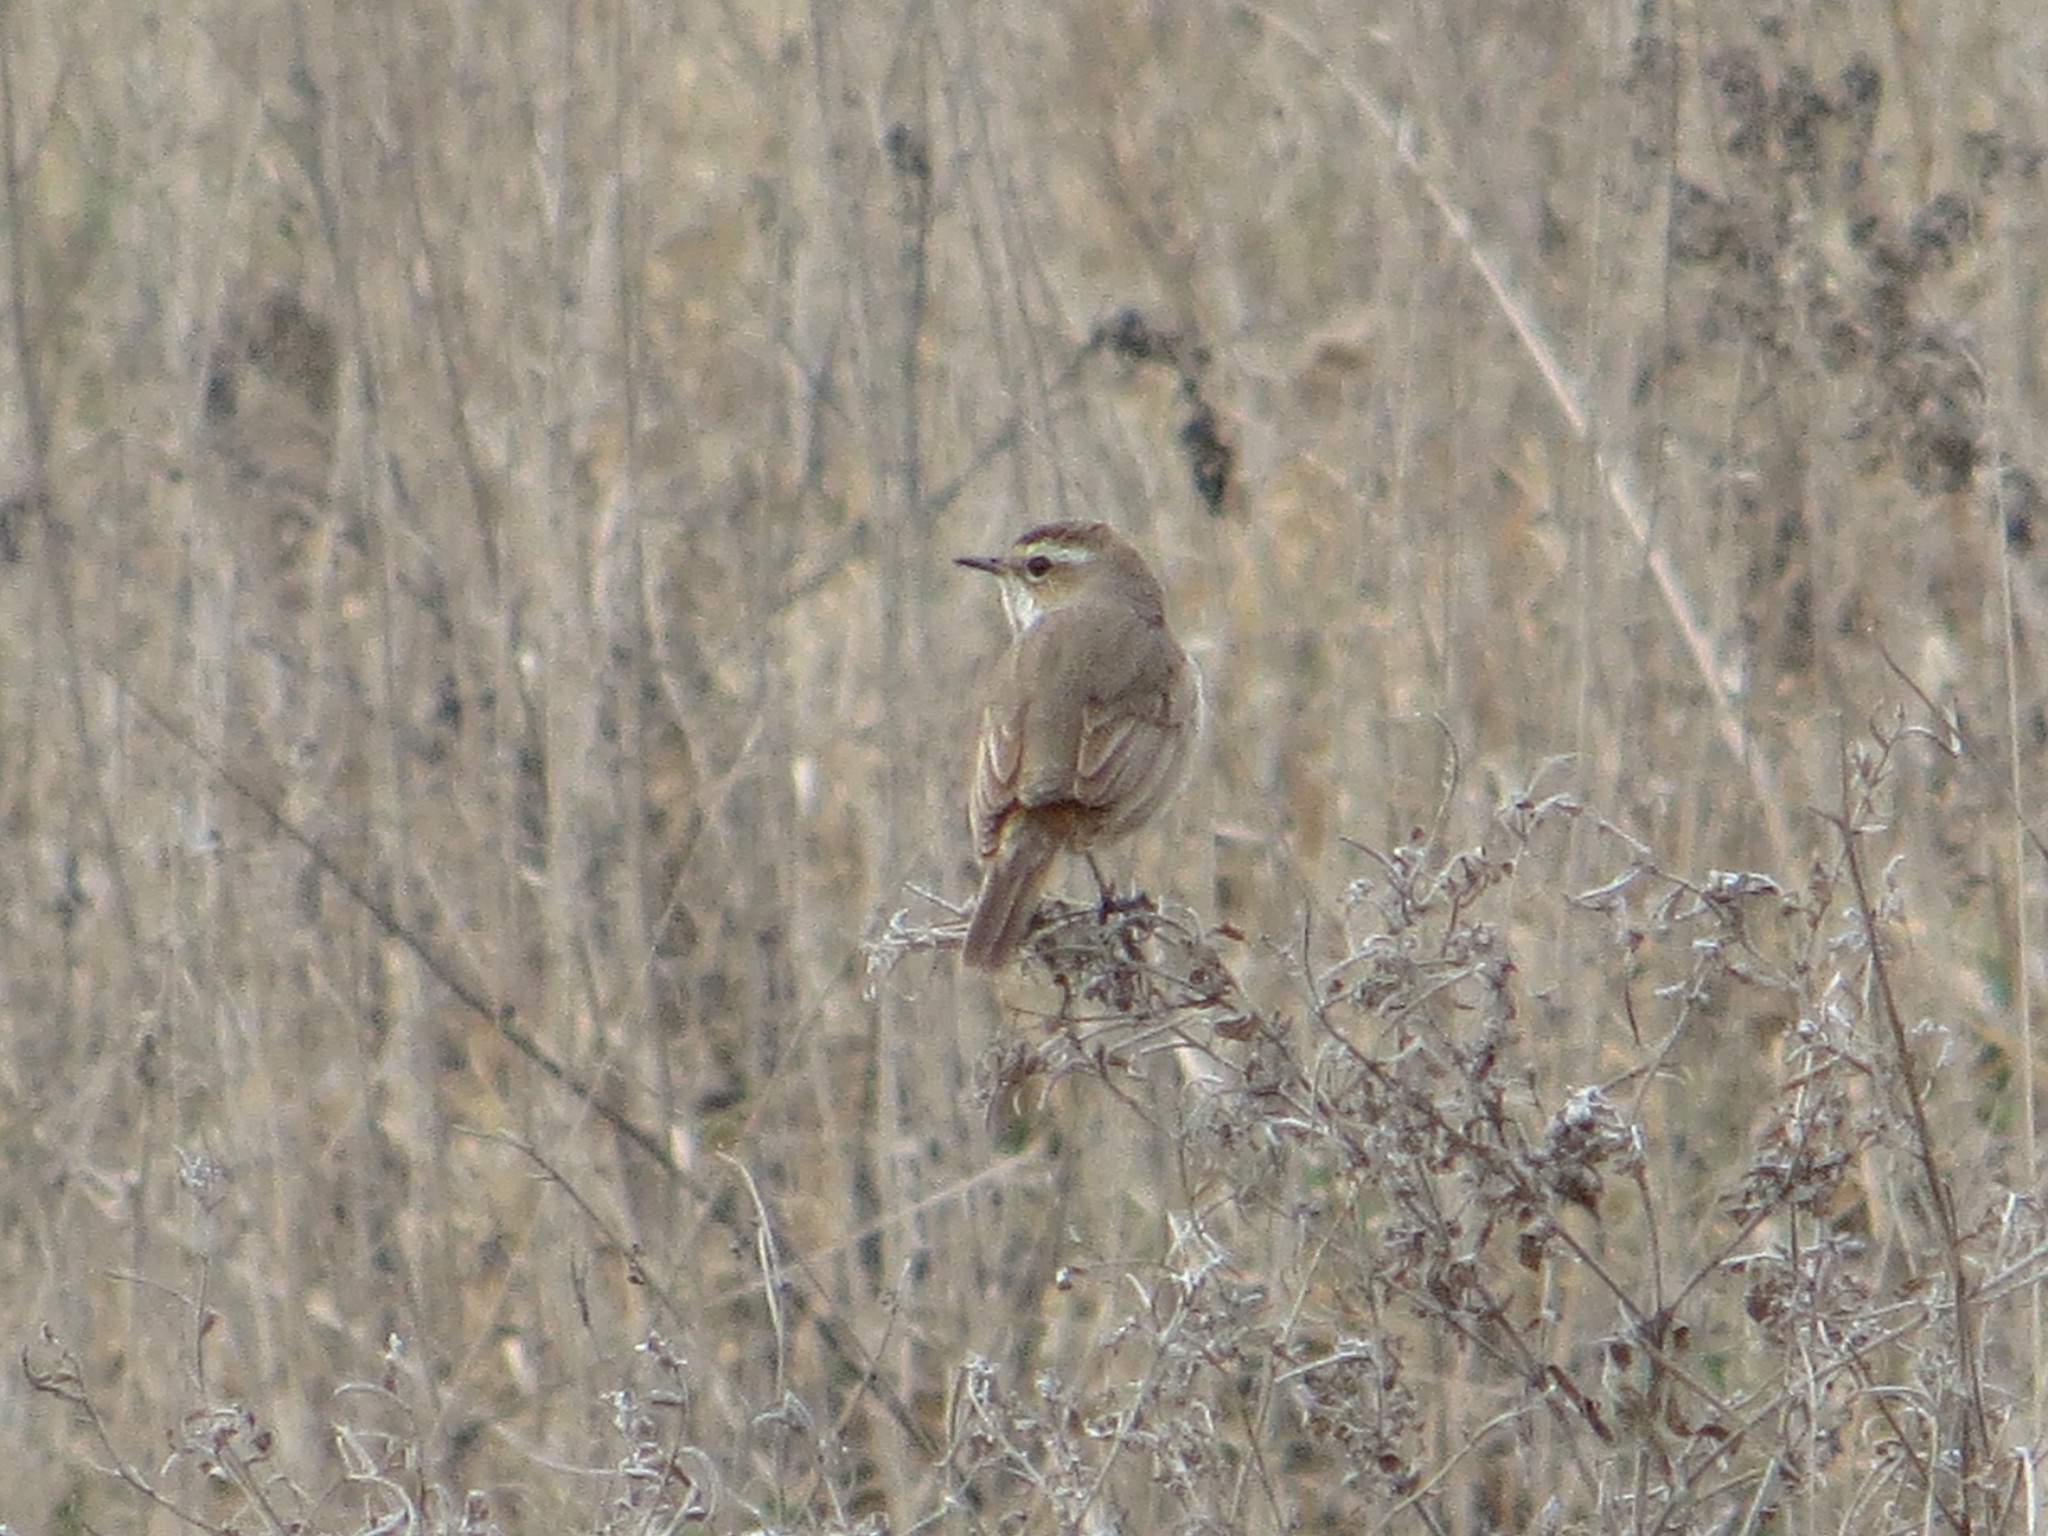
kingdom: Animalia
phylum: Chordata
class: Aves
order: Passeriformes
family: Muscicapidae
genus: Luscinia
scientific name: Luscinia svecica
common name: Bluethroat
